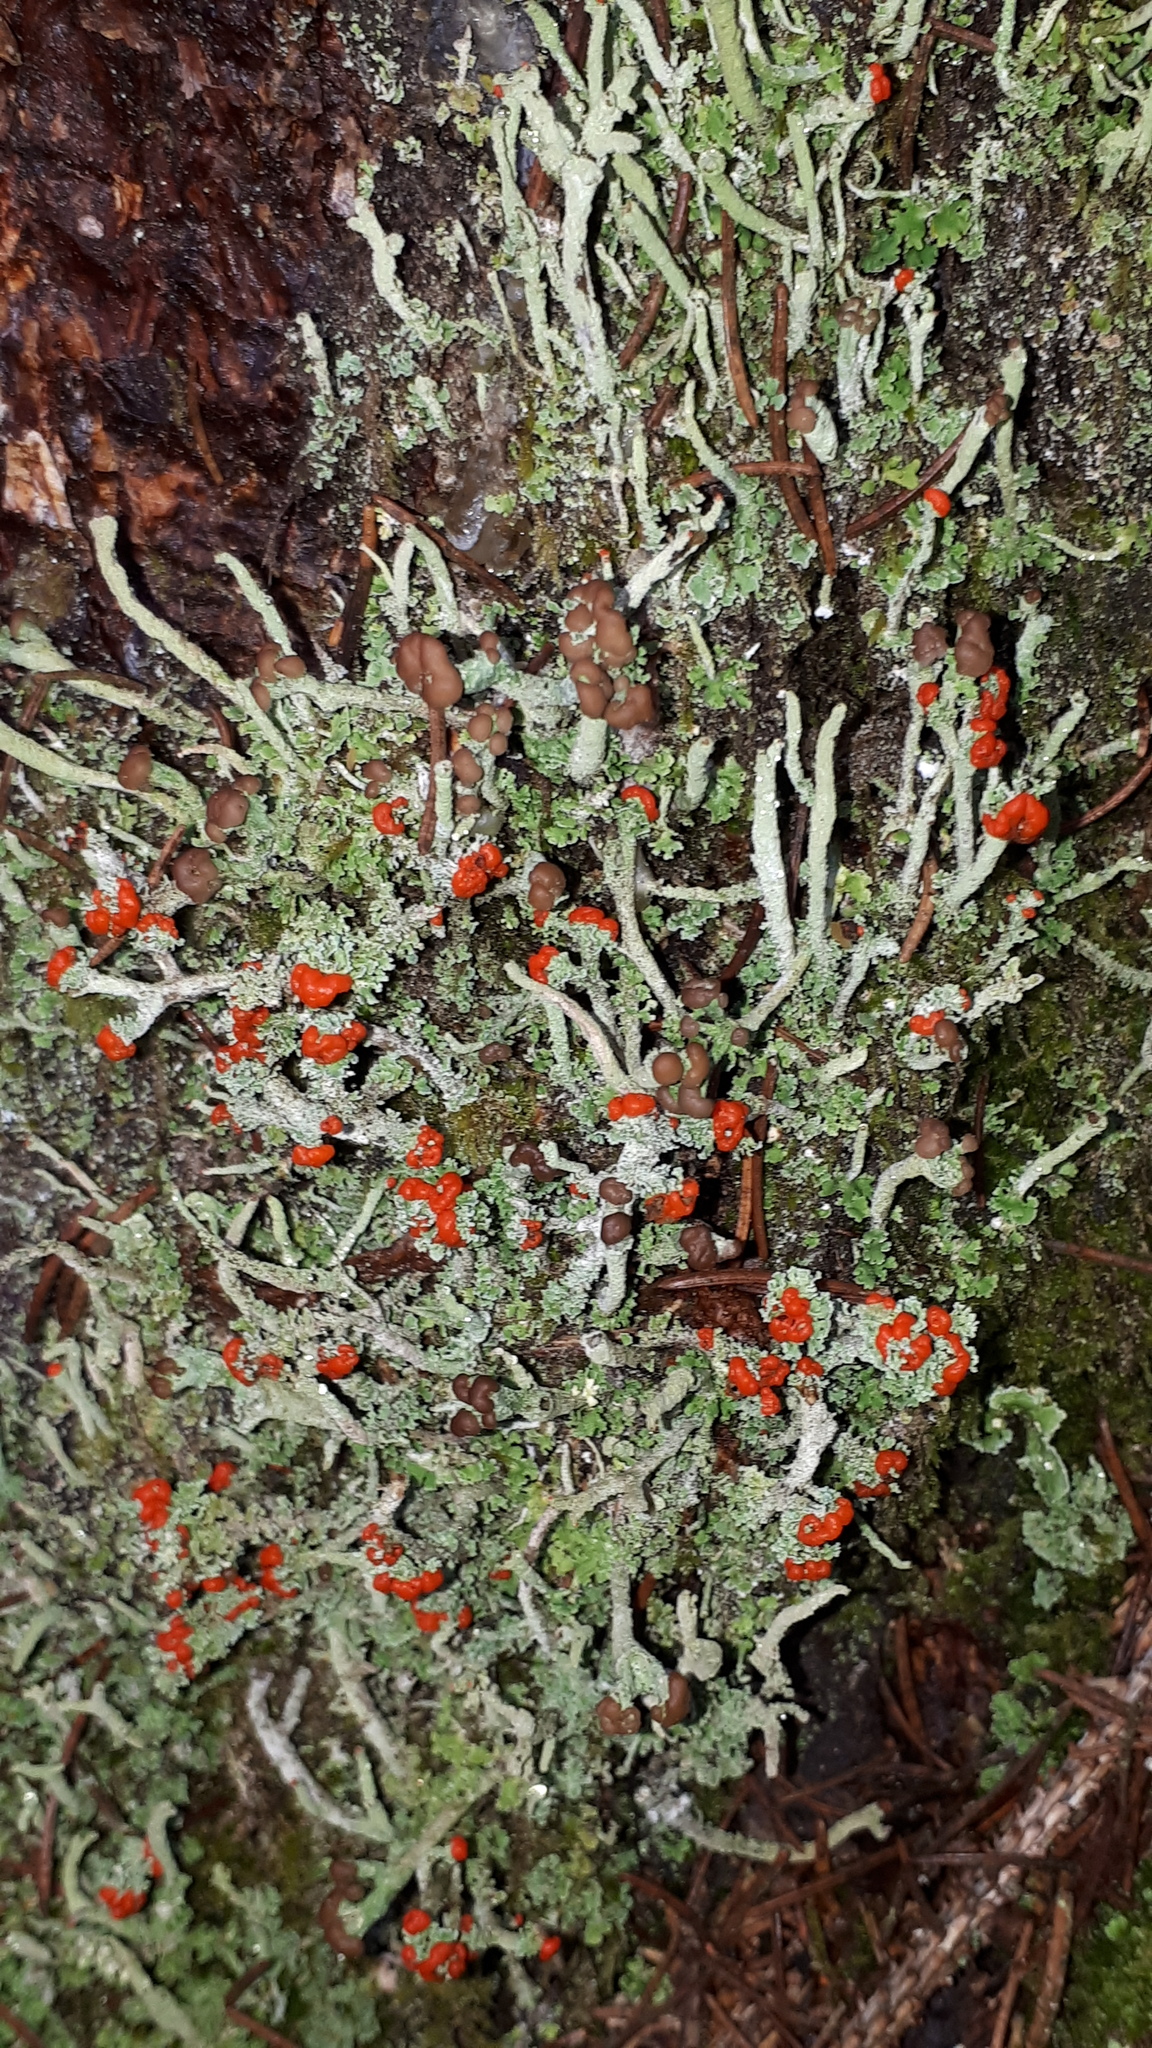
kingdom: Fungi
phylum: Ascomycota
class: Lecanoromycetes
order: Lecanorales
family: Cladoniaceae
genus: Cladonia
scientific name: Cladonia floerkeana
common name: Gritty british soldiers lichen
